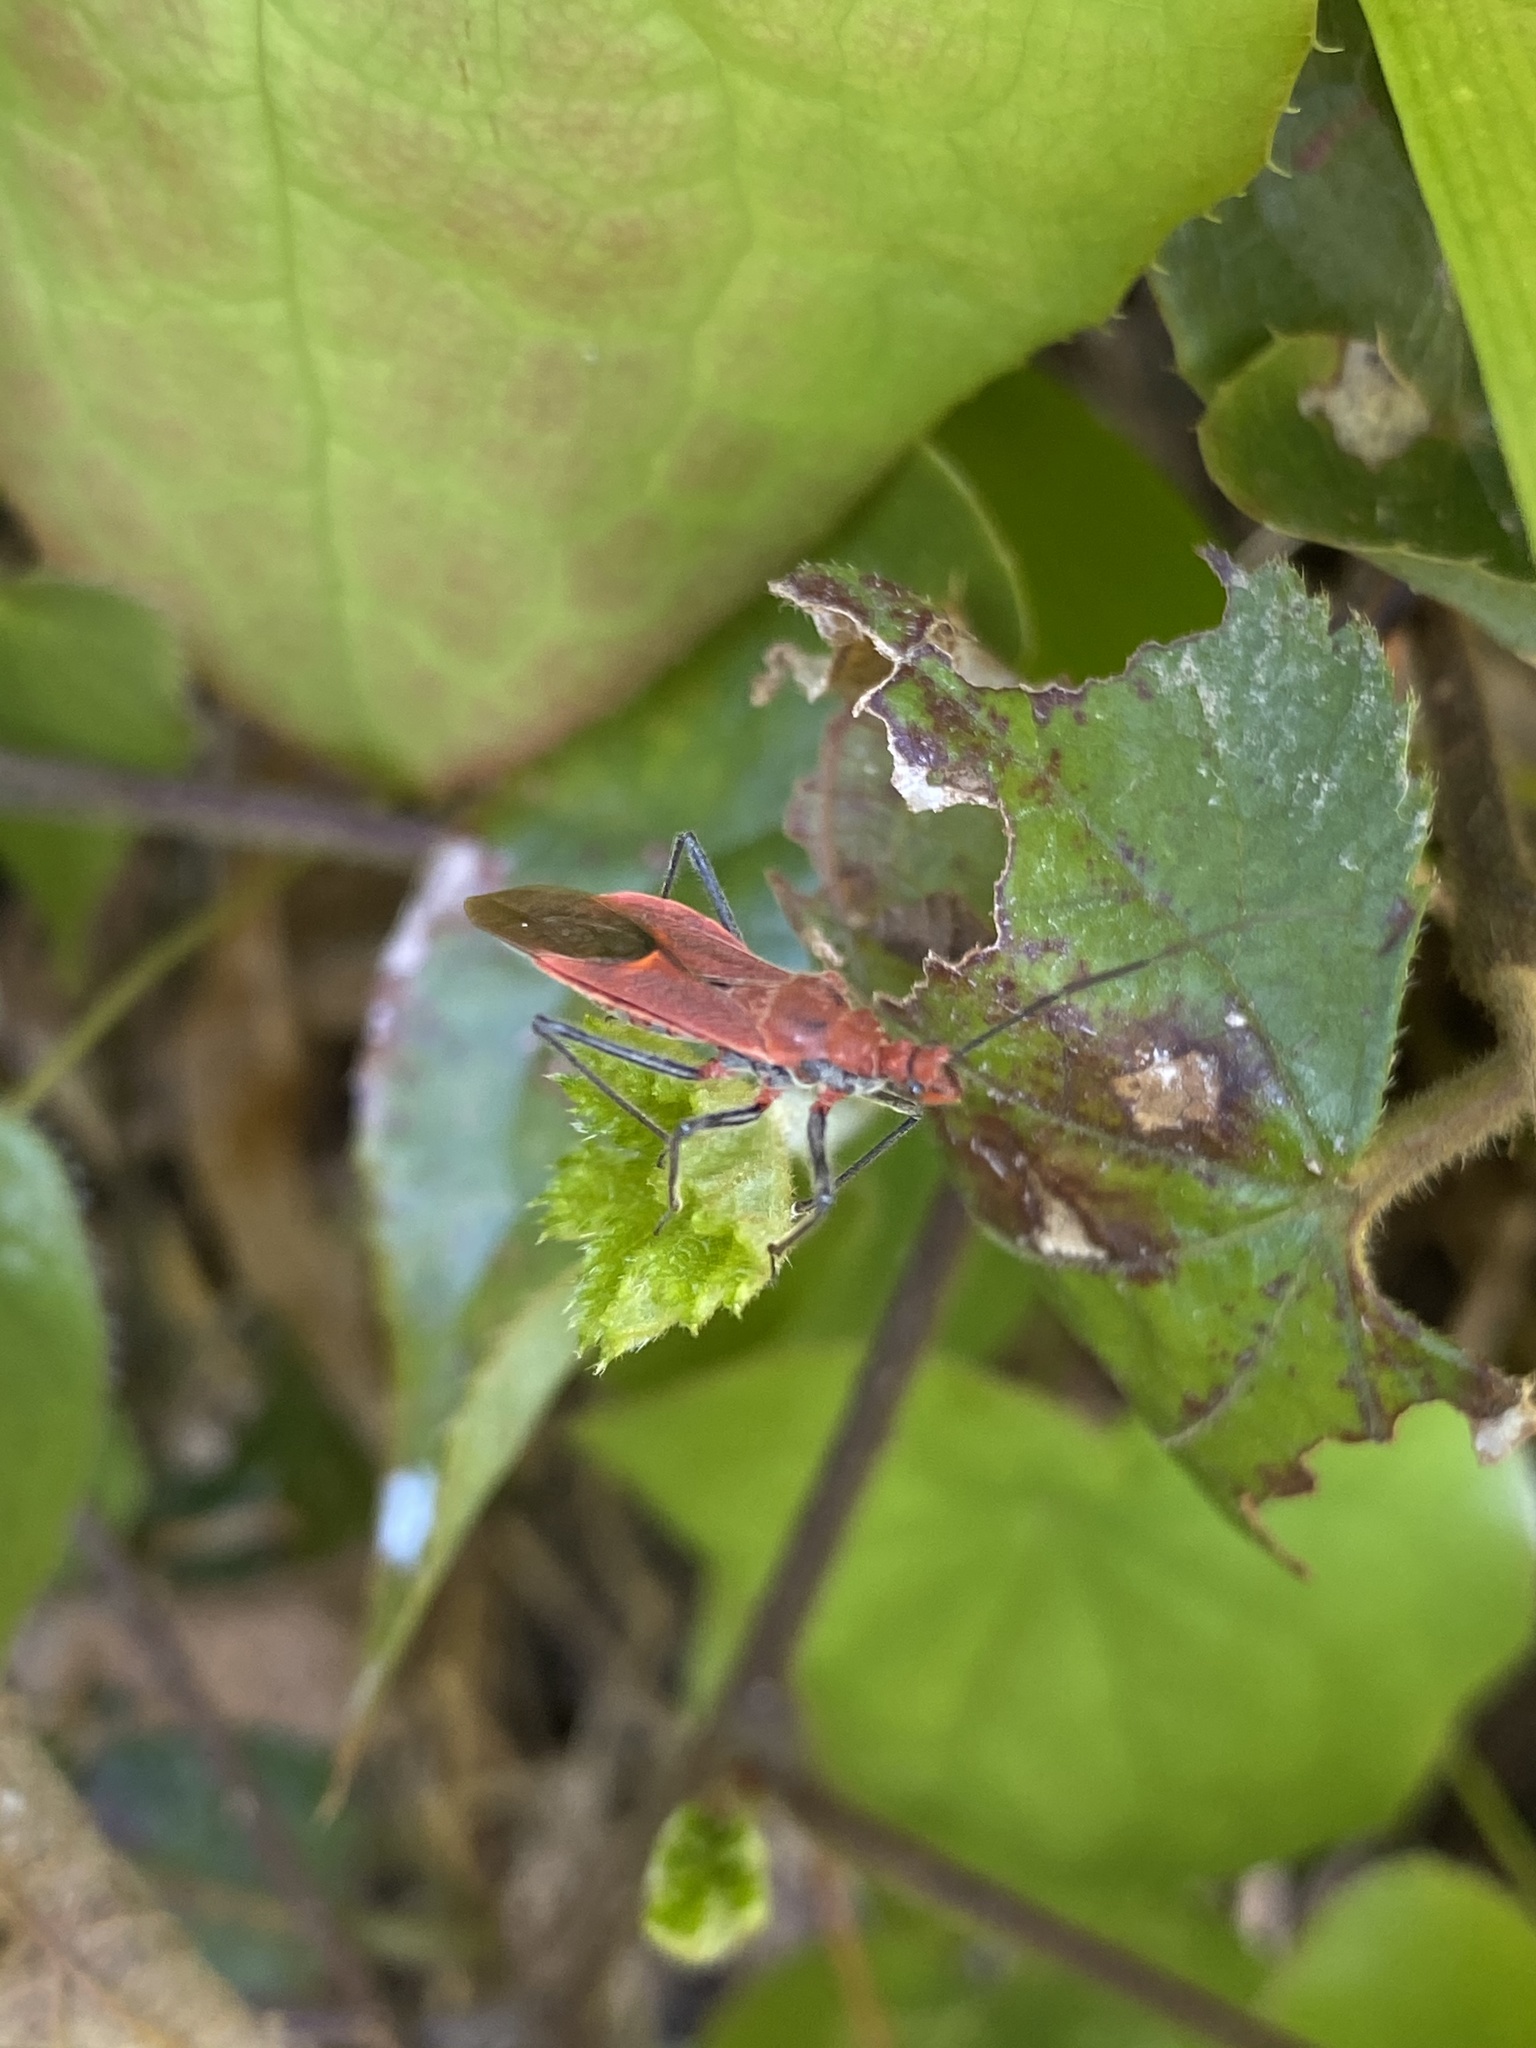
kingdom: Animalia
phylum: Arthropoda
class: Insecta
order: Hemiptera
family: Reduviidae
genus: Cutocoris
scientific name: Cutocoris
